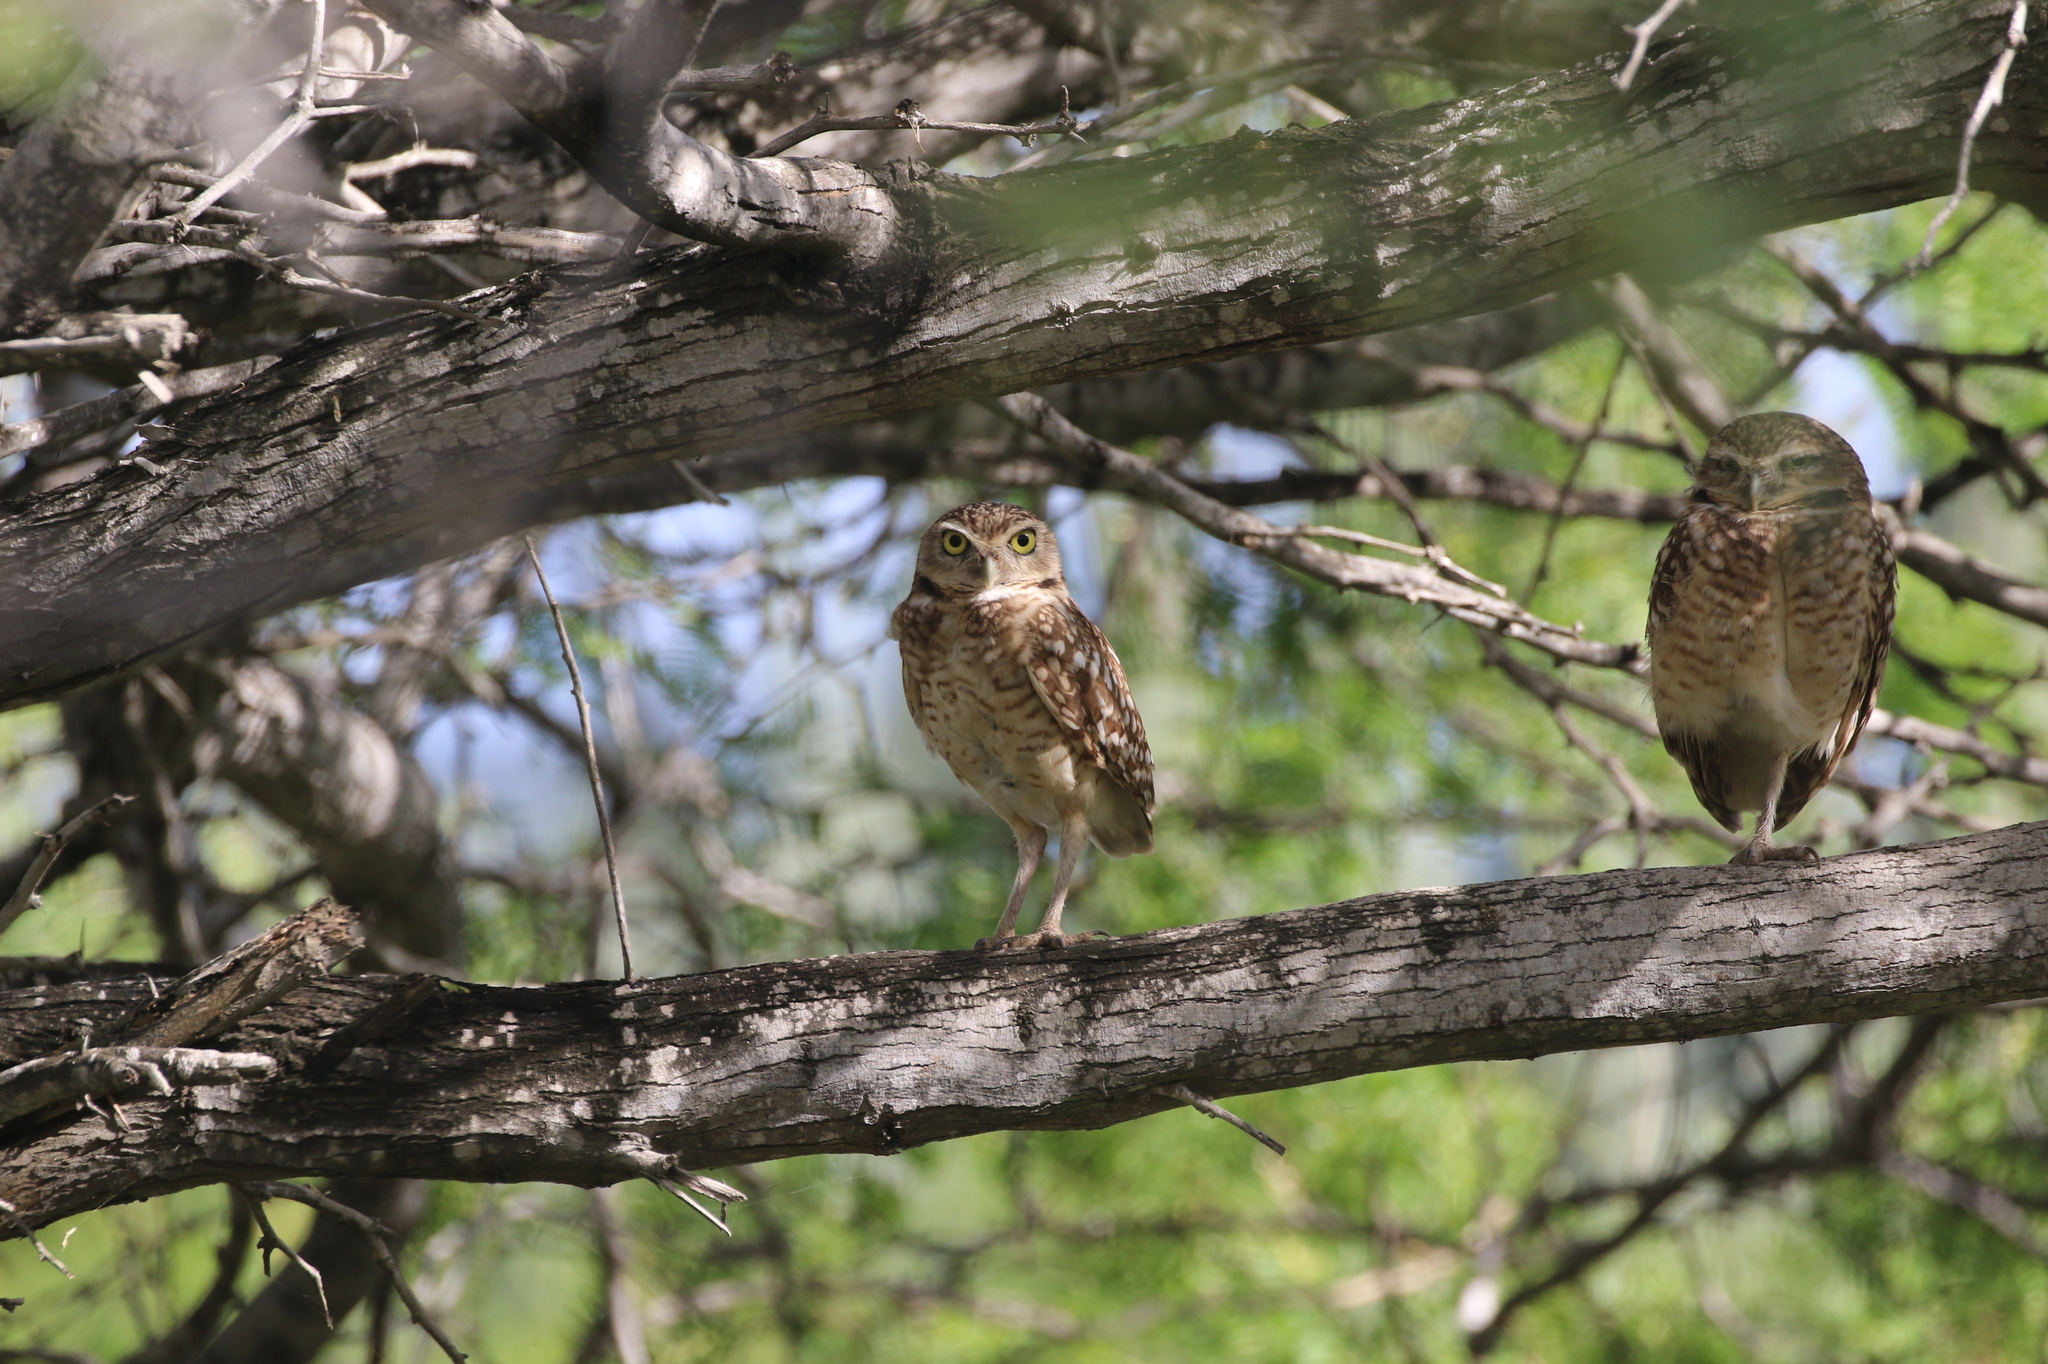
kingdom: Animalia
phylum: Chordata
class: Aves
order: Strigiformes
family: Strigidae
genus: Athene
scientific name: Athene cunicularia
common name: Burrowing owl
